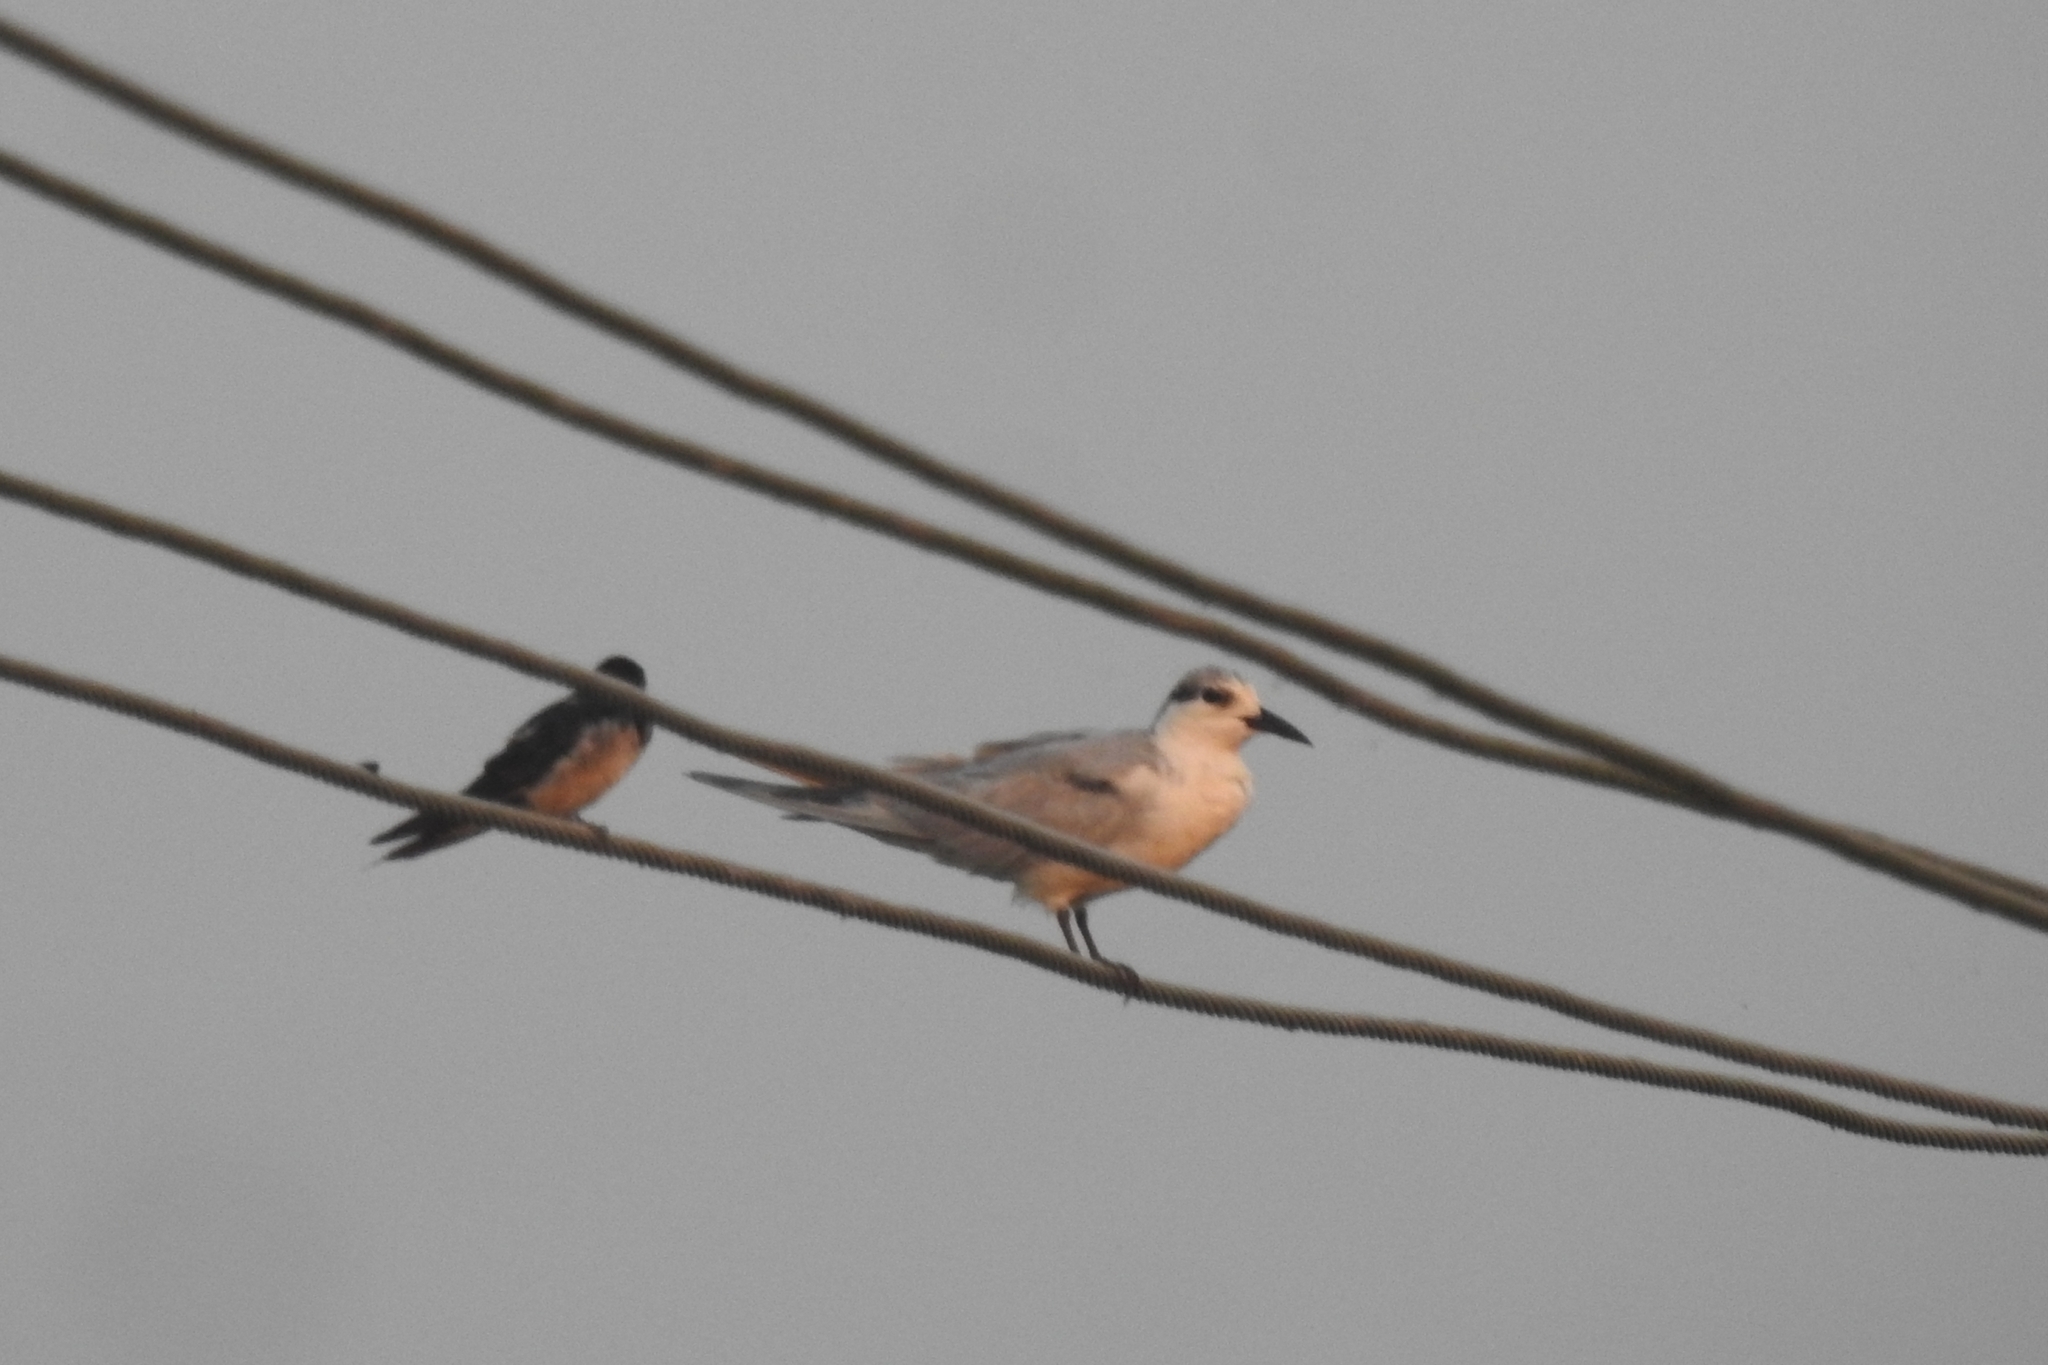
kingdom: Animalia
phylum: Chordata
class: Aves
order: Charadriiformes
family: Laridae
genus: Sterna
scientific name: Sterna hirundo
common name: Common tern
